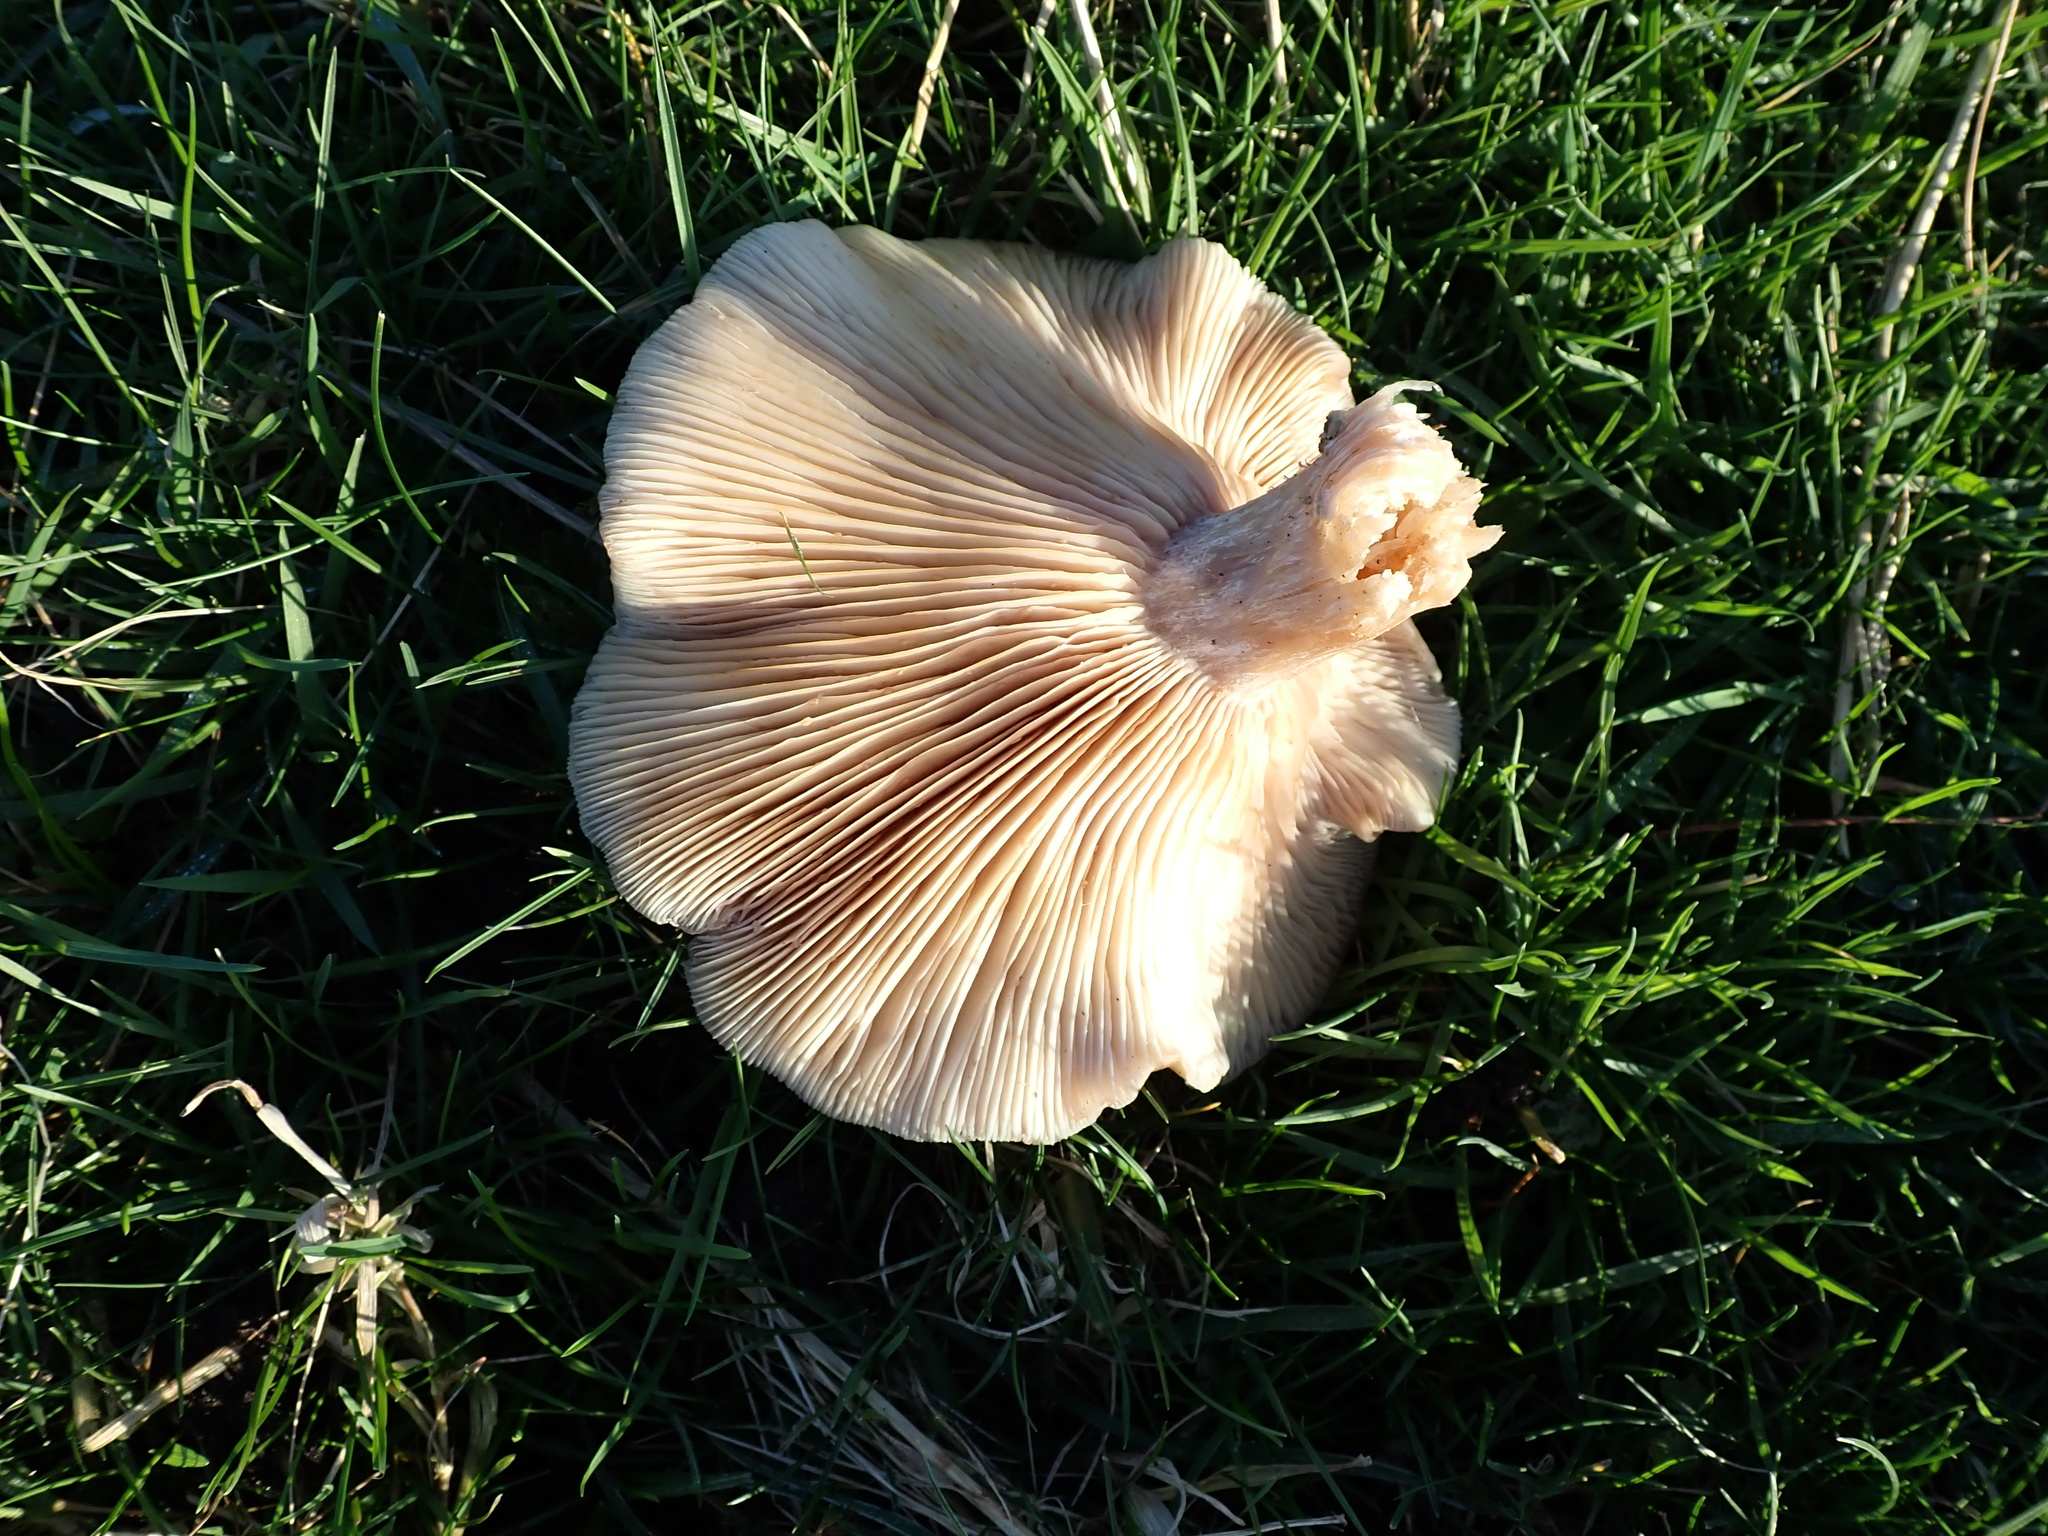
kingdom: Fungi
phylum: Basidiomycota
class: Agaricomycetes
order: Agaricales
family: Omphalotaceae
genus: Collybiopsis
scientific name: Collybiopsis peronata
